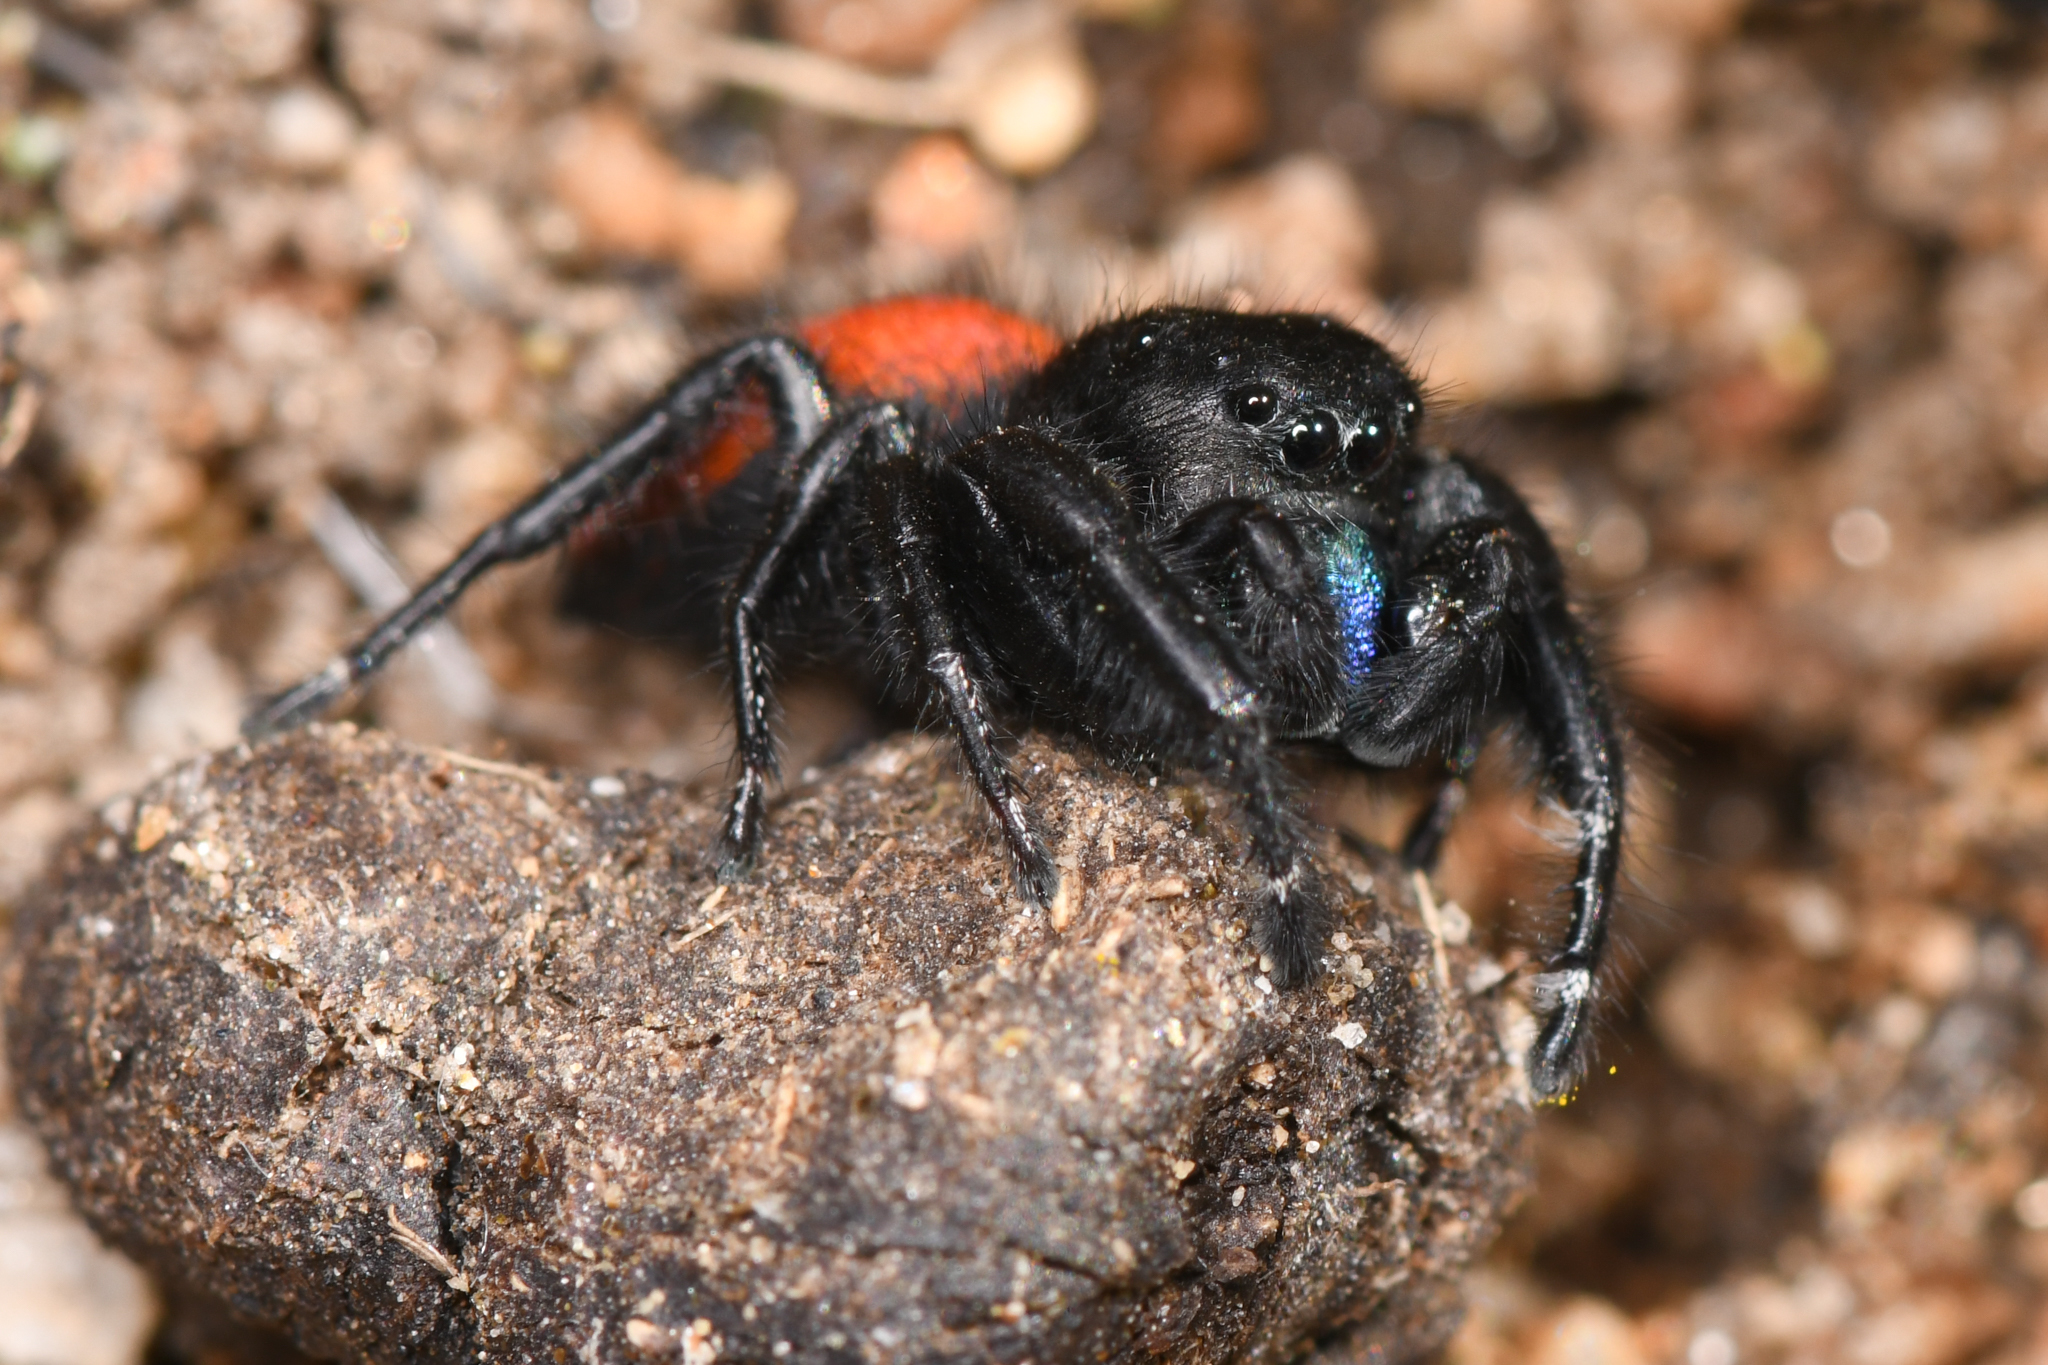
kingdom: Animalia
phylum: Arthropoda
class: Arachnida
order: Araneae
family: Salticidae
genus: Phidippus
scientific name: Phidippus johnsoni
